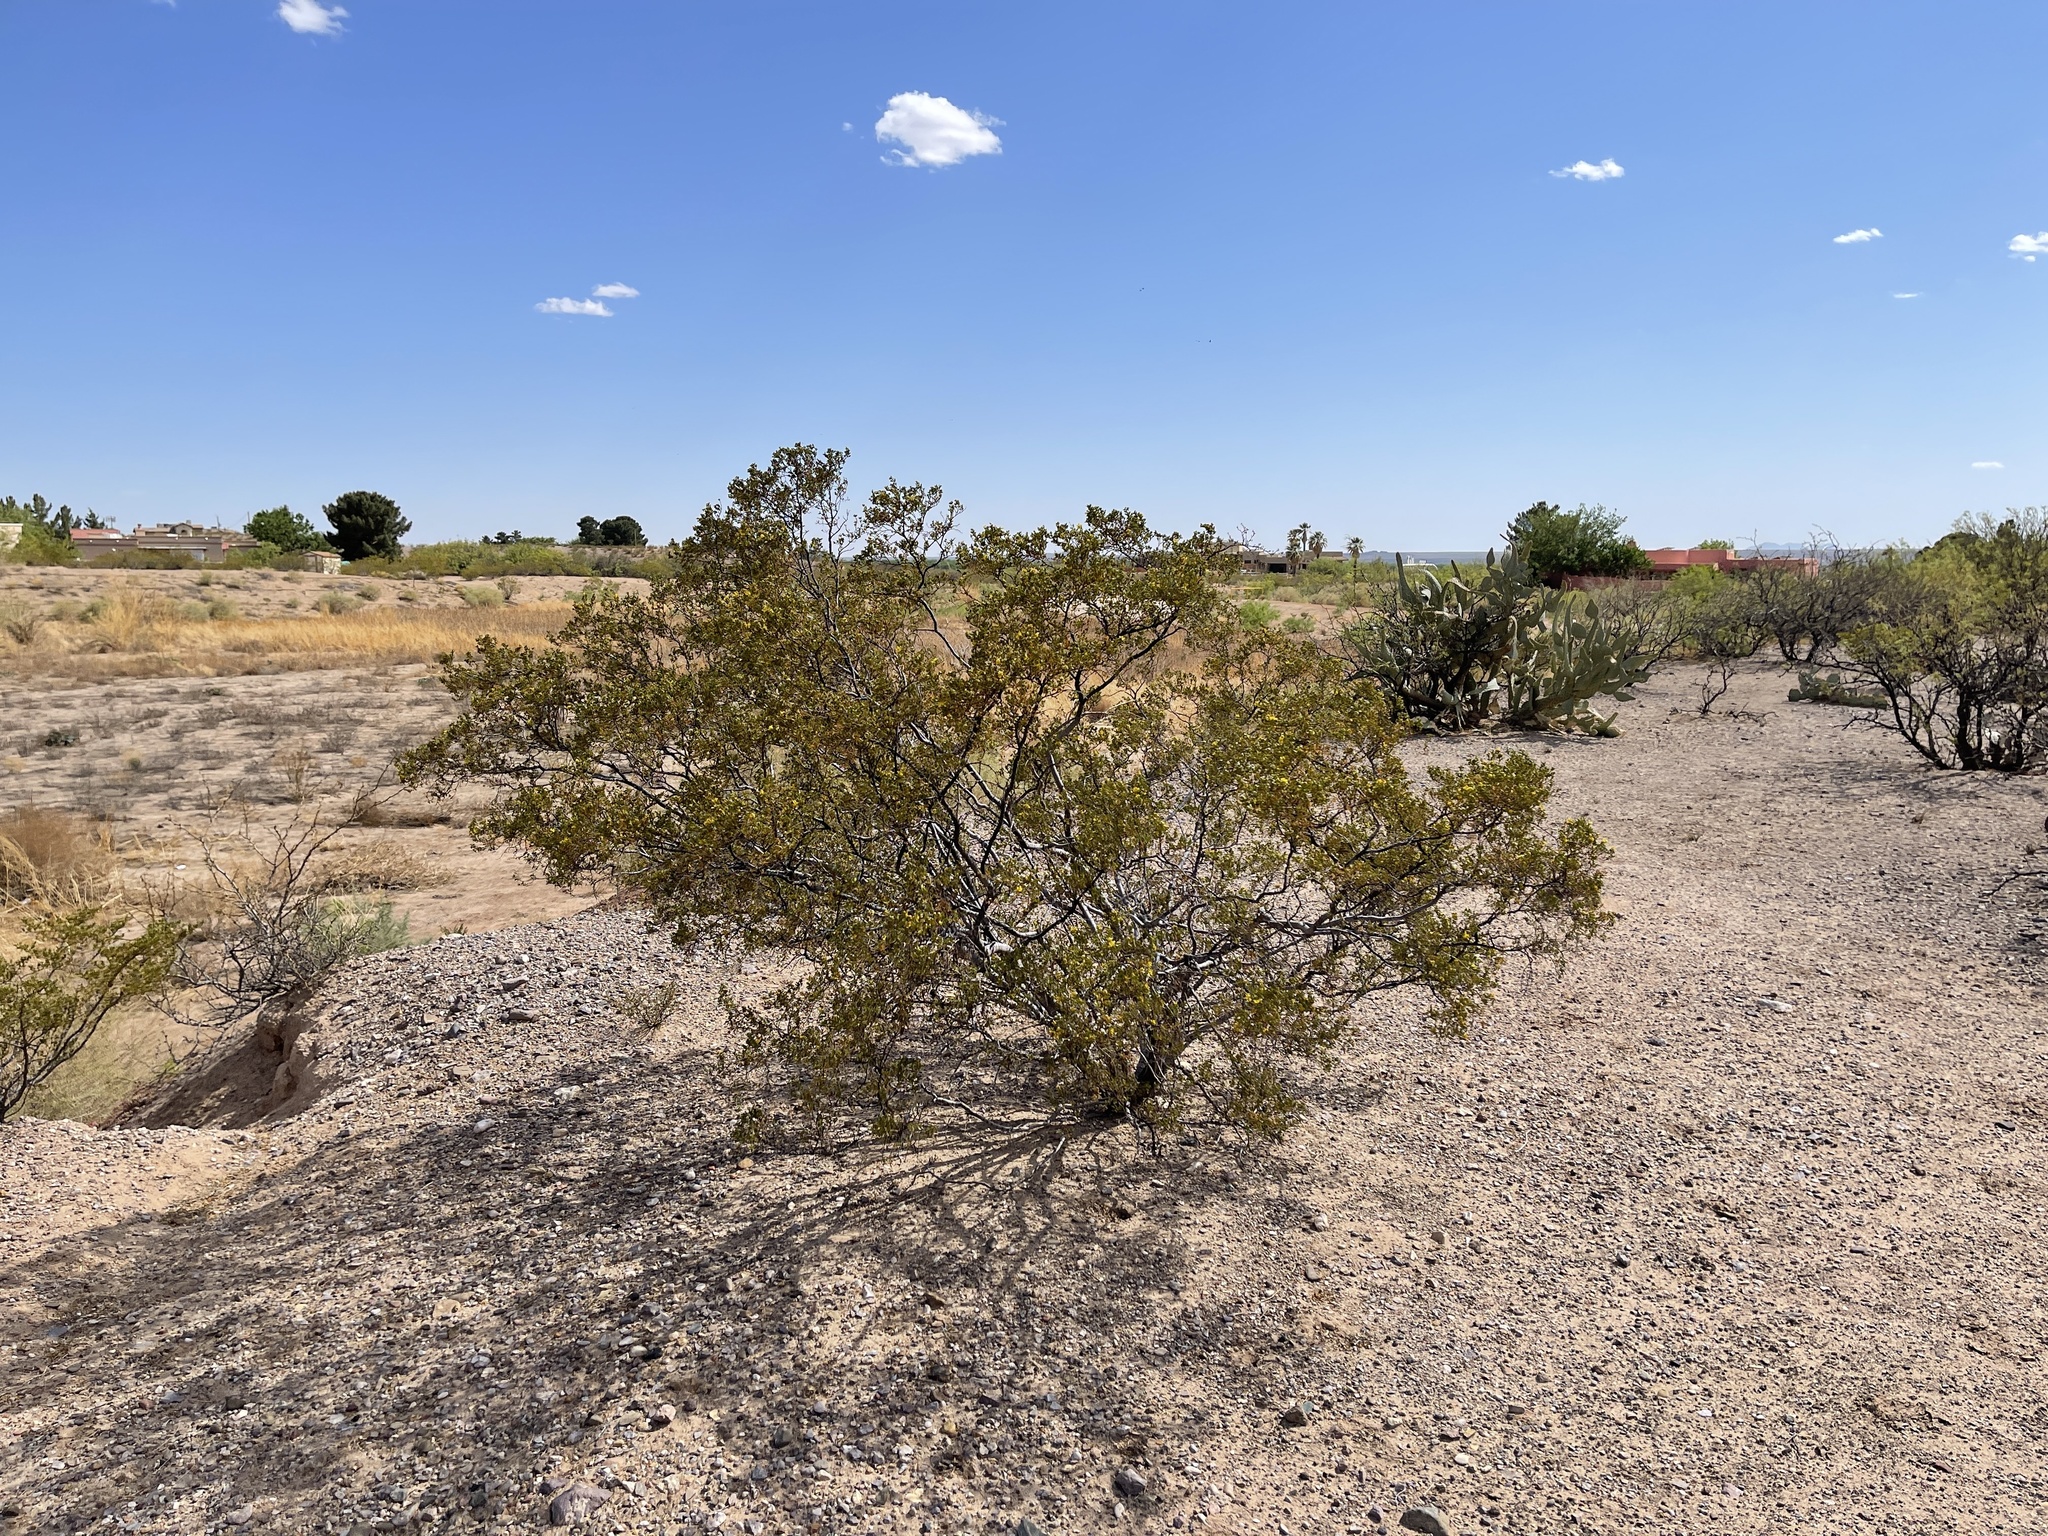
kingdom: Plantae
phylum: Tracheophyta
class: Magnoliopsida
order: Zygophyllales
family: Zygophyllaceae
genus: Larrea
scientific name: Larrea tridentata
